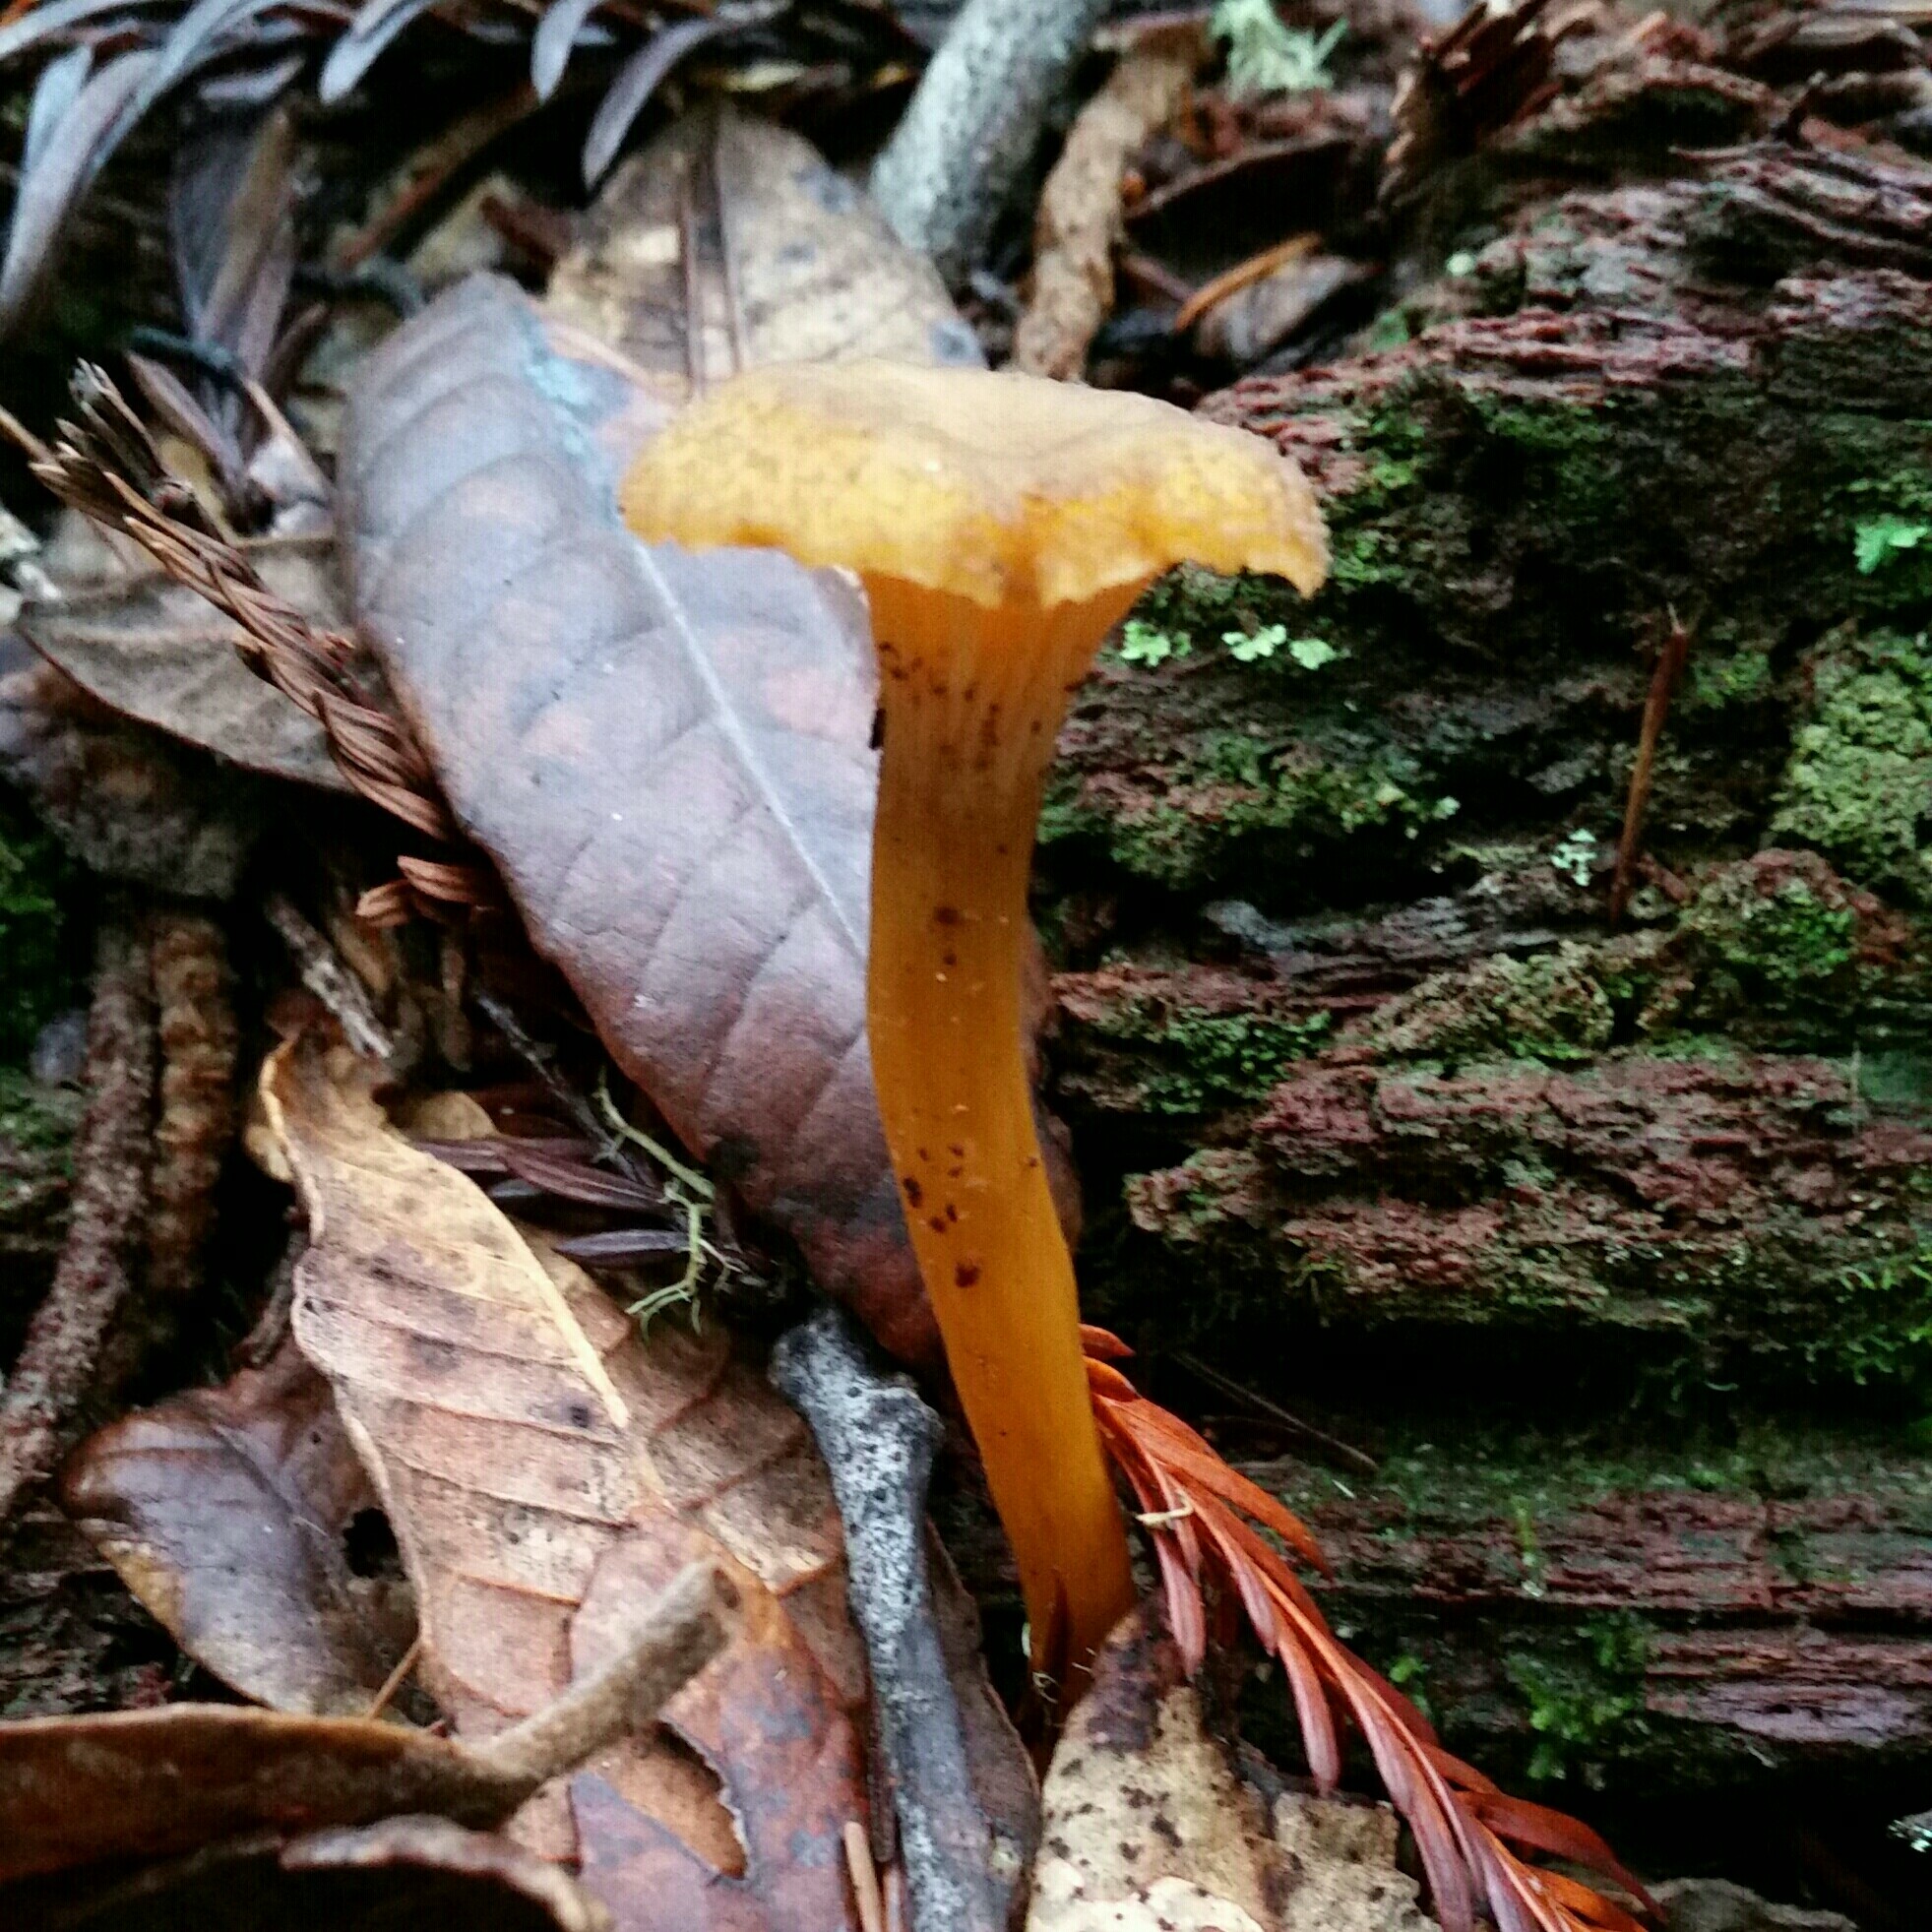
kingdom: Fungi
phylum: Basidiomycota
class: Agaricomycetes
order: Cantharellales
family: Hydnaceae
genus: Craterellus
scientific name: Craterellus tubaeformis
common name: Yellowfoot
